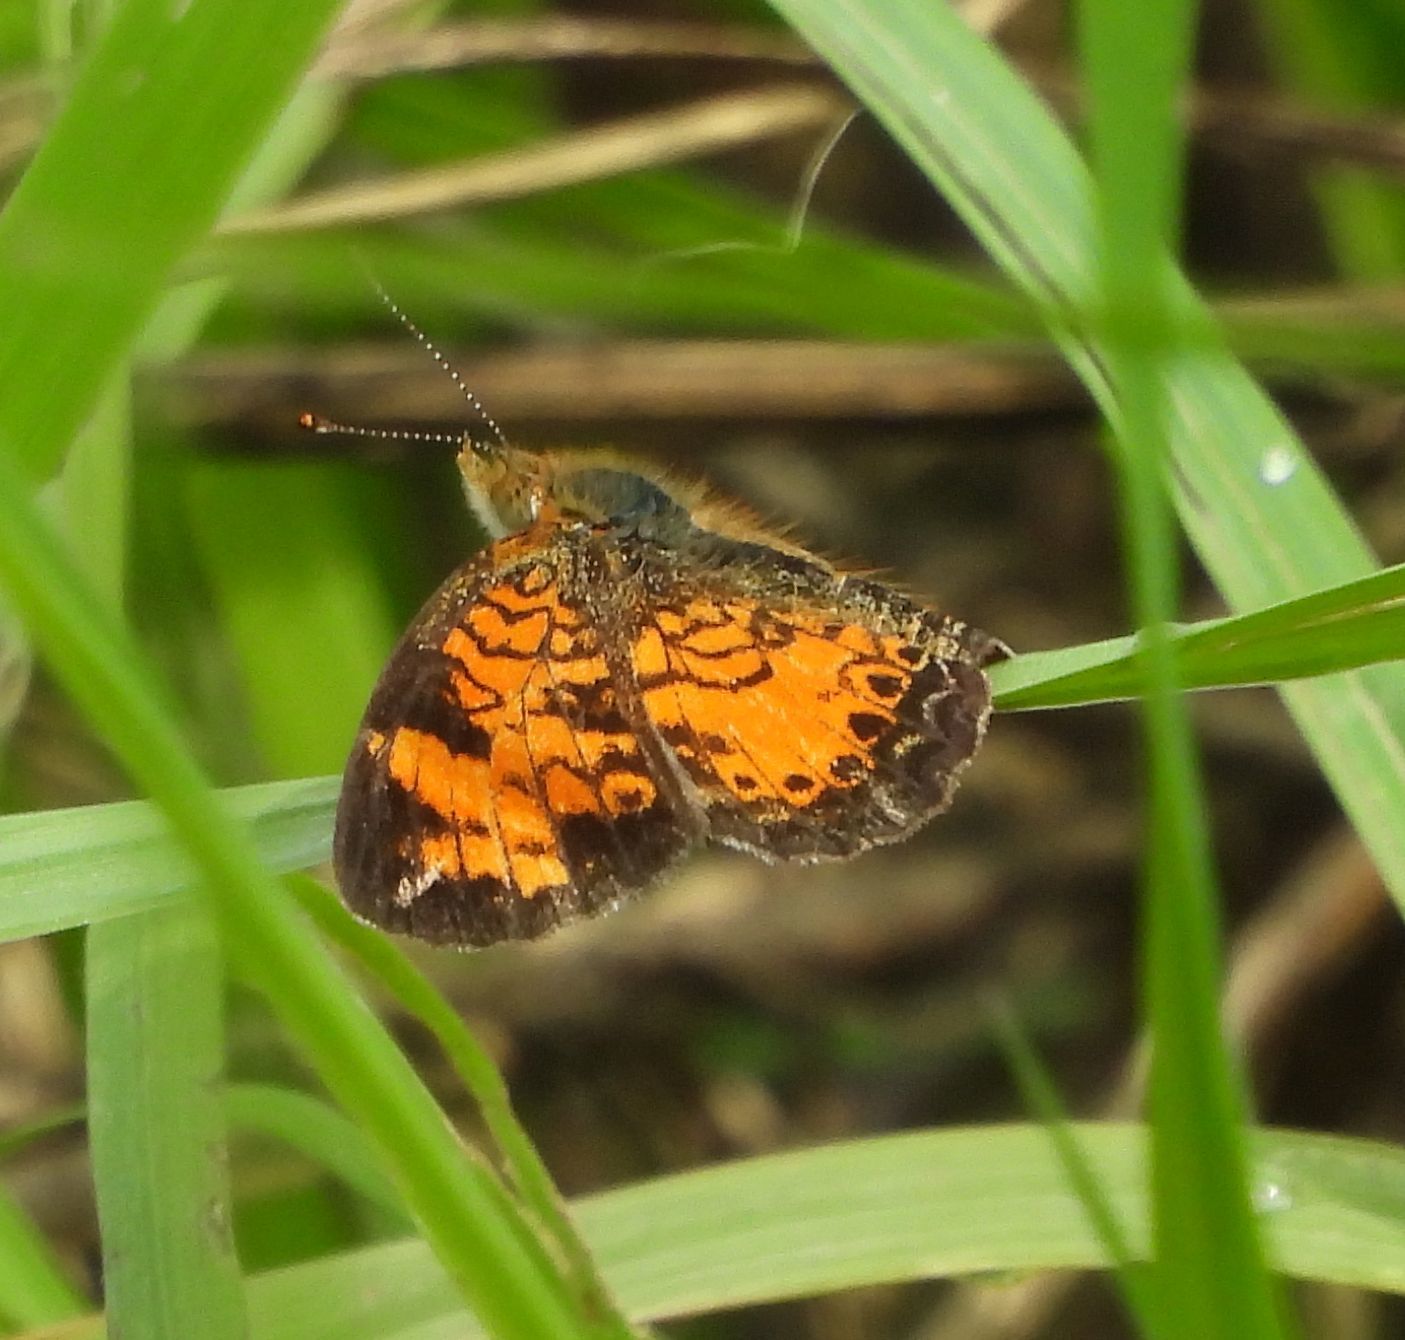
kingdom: Animalia
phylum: Arthropoda
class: Insecta
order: Lepidoptera
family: Nymphalidae
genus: Phyciodes
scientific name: Phyciodes tharos
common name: Pearl crescent
